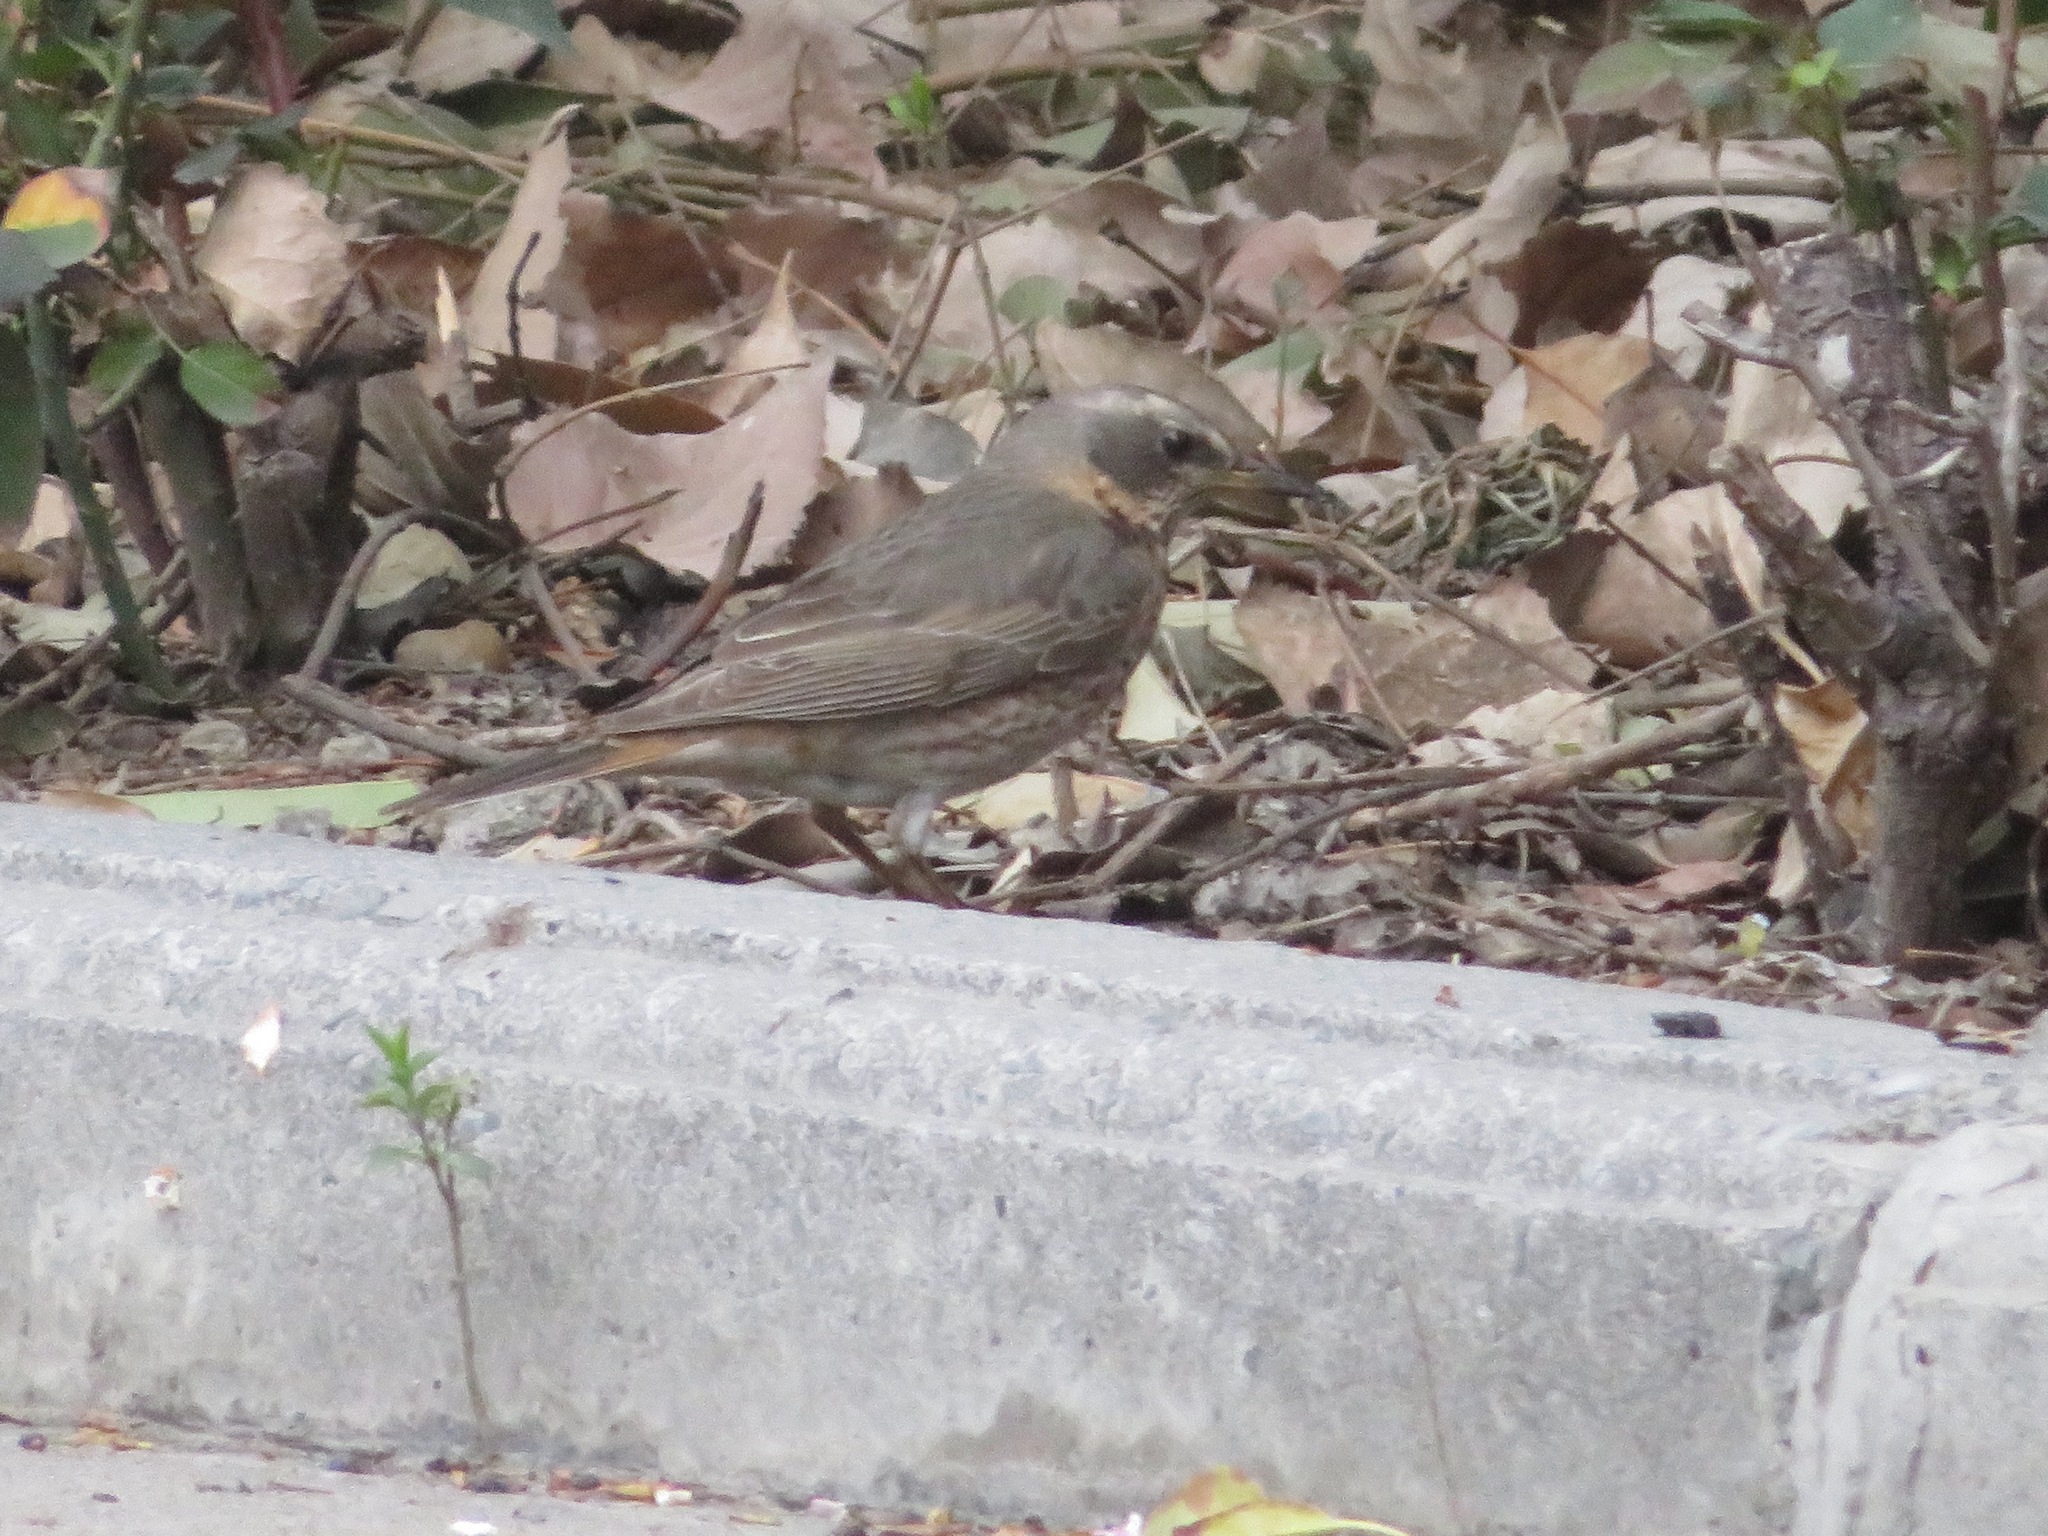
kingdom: Animalia
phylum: Chordata
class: Aves
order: Passeriformes
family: Turdidae
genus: Turdus
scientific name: Turdus naumanni
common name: Naumann's thrush
